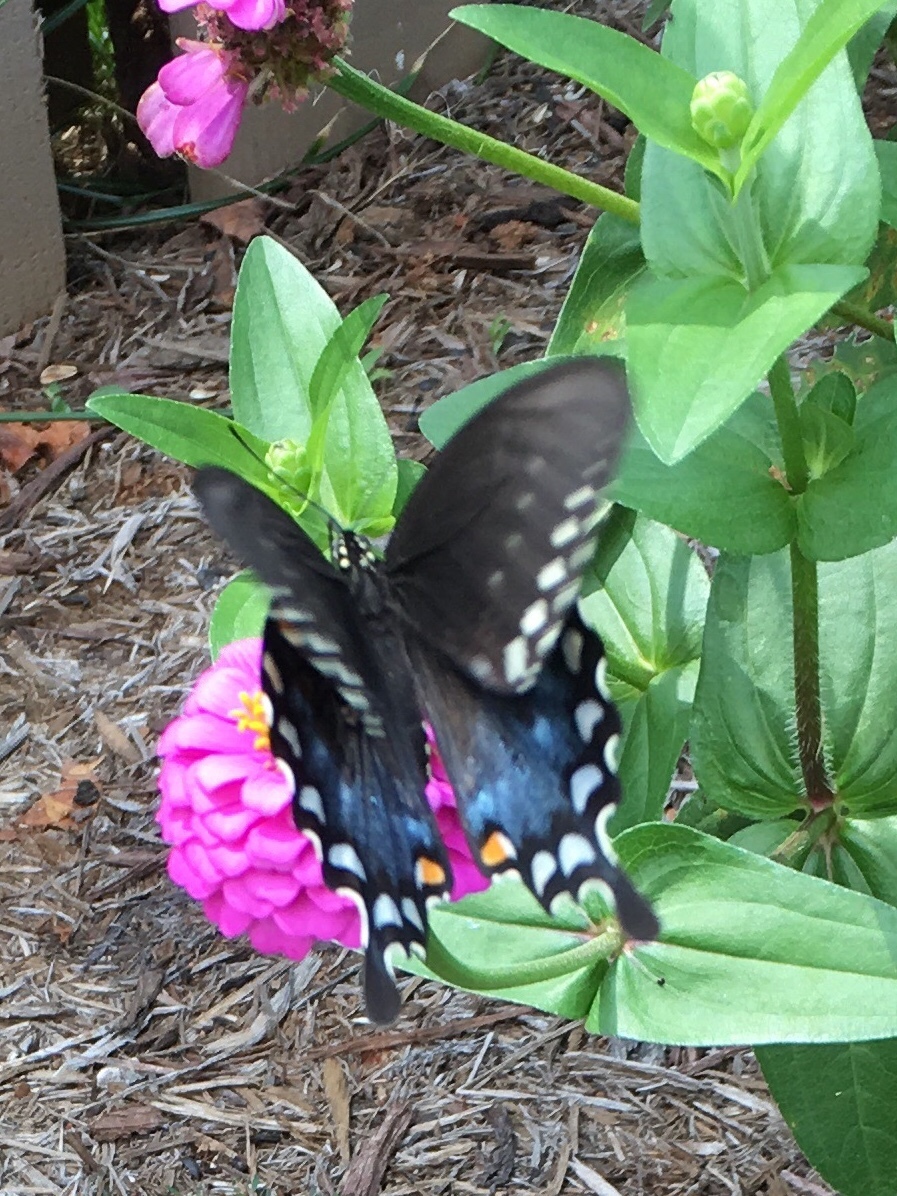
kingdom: Animalia
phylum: Arthropoda
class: Insecta
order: Lepidoptera
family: Papilionidae
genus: Papilio
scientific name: Papilio troilus
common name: Spicebush swallowtail
